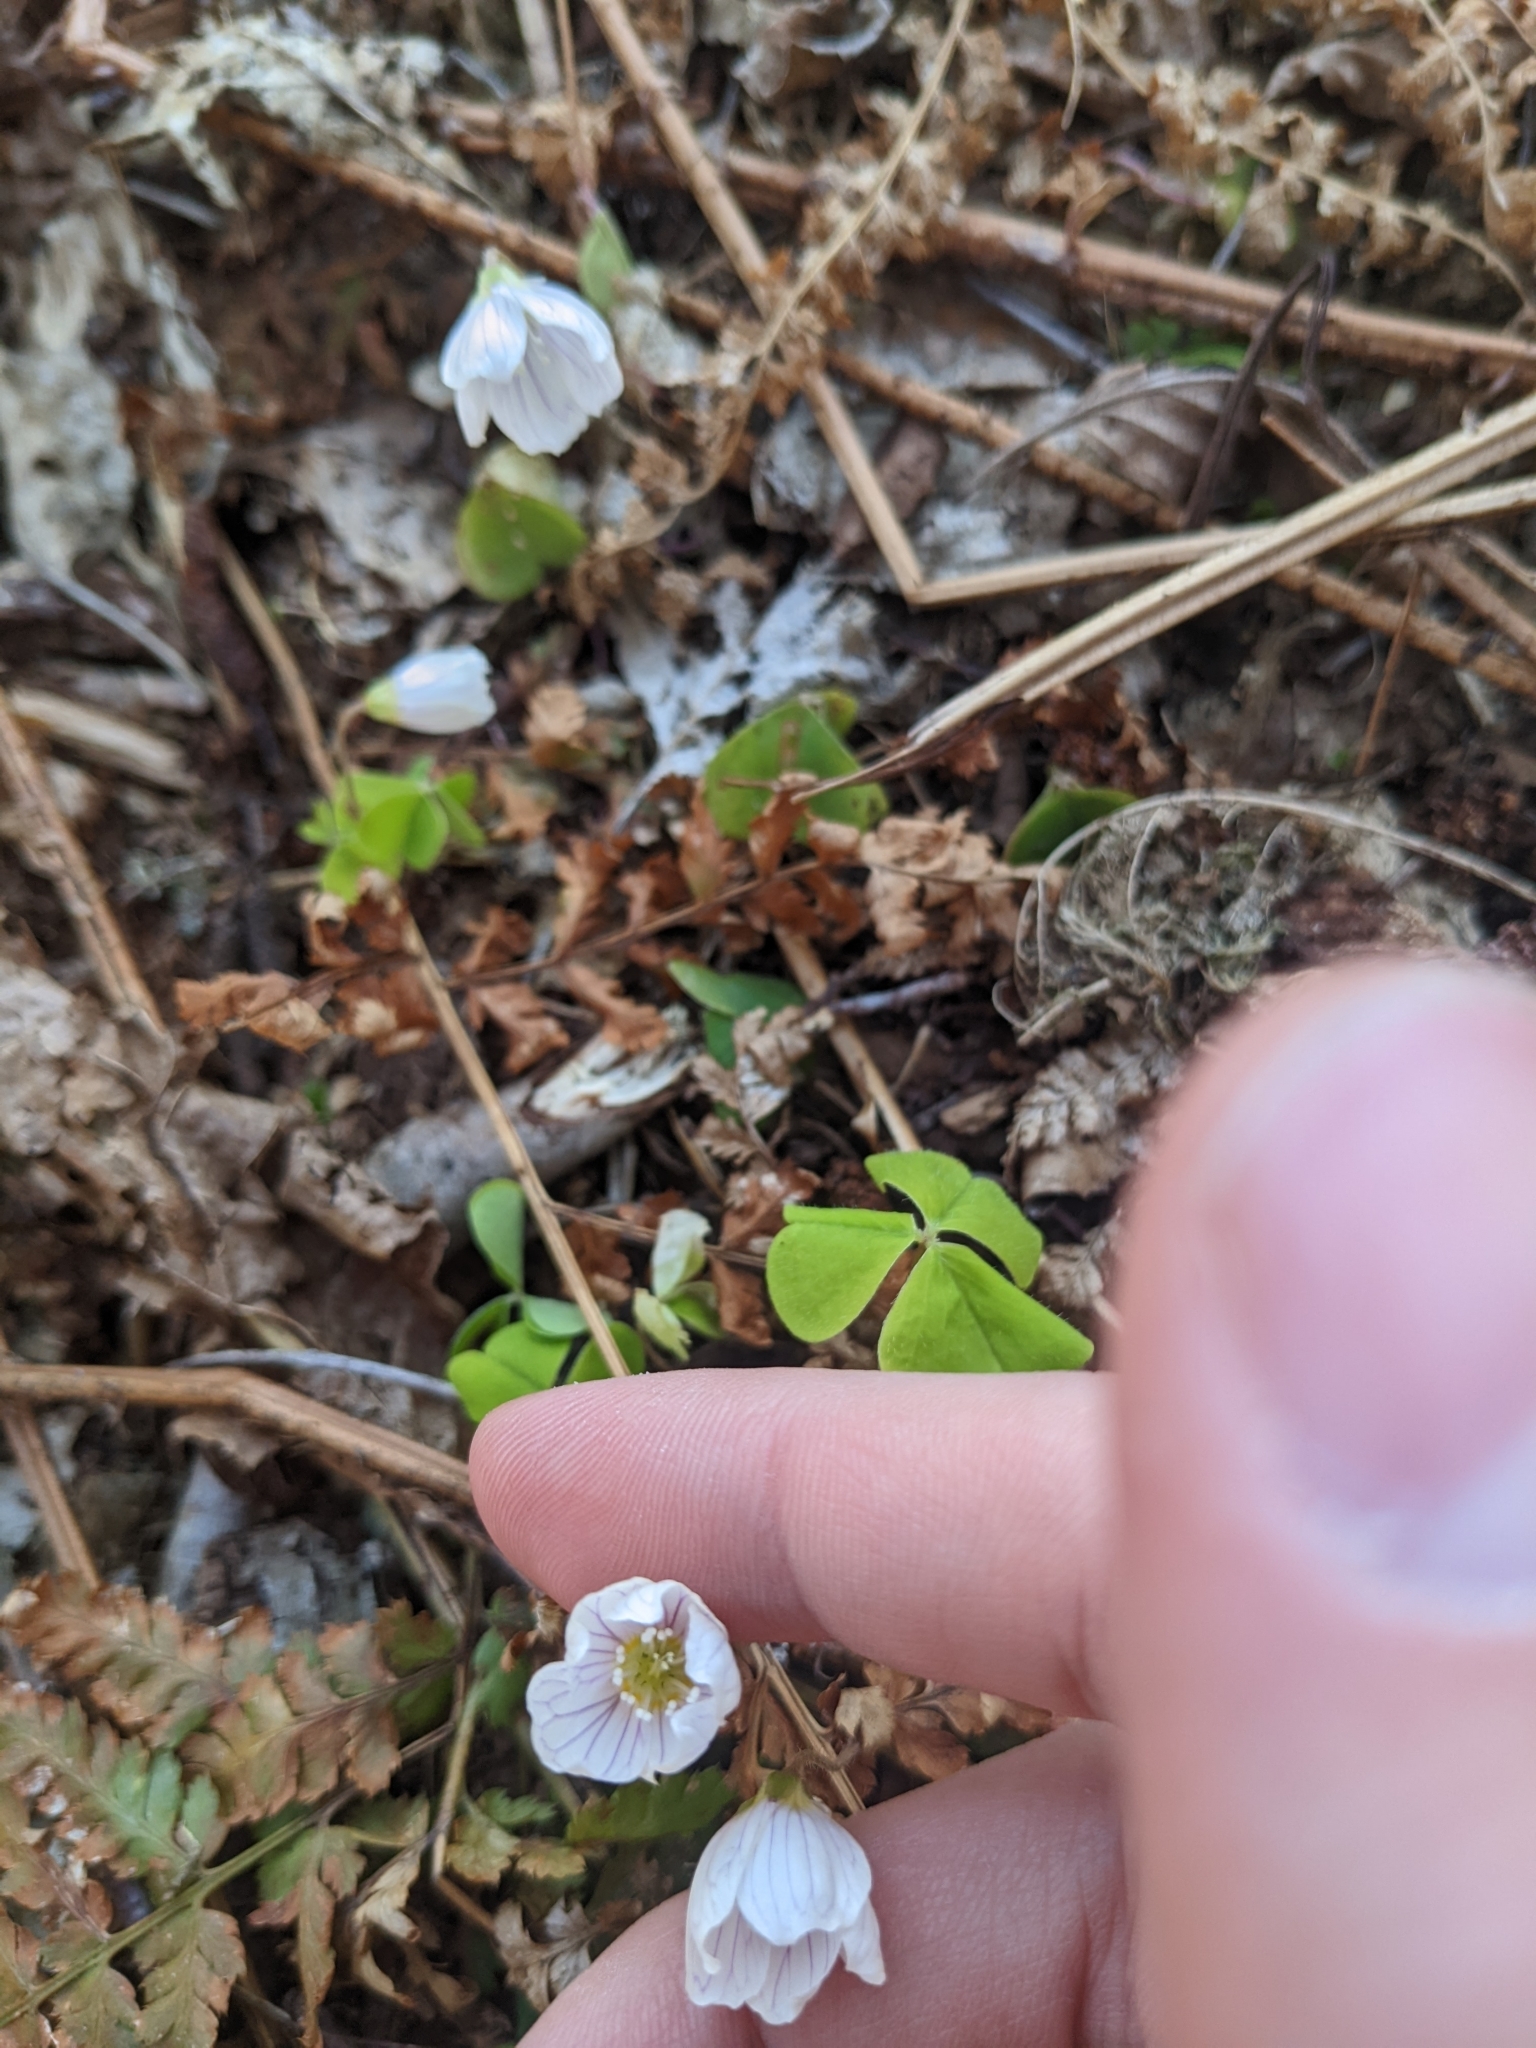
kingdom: Plantae
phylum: Tracheophyta
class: Magnoliopsida
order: Oxalidales
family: Oxalidaceae
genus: Oxalis
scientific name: Oxalis acetosella
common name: Wood-sorrel
